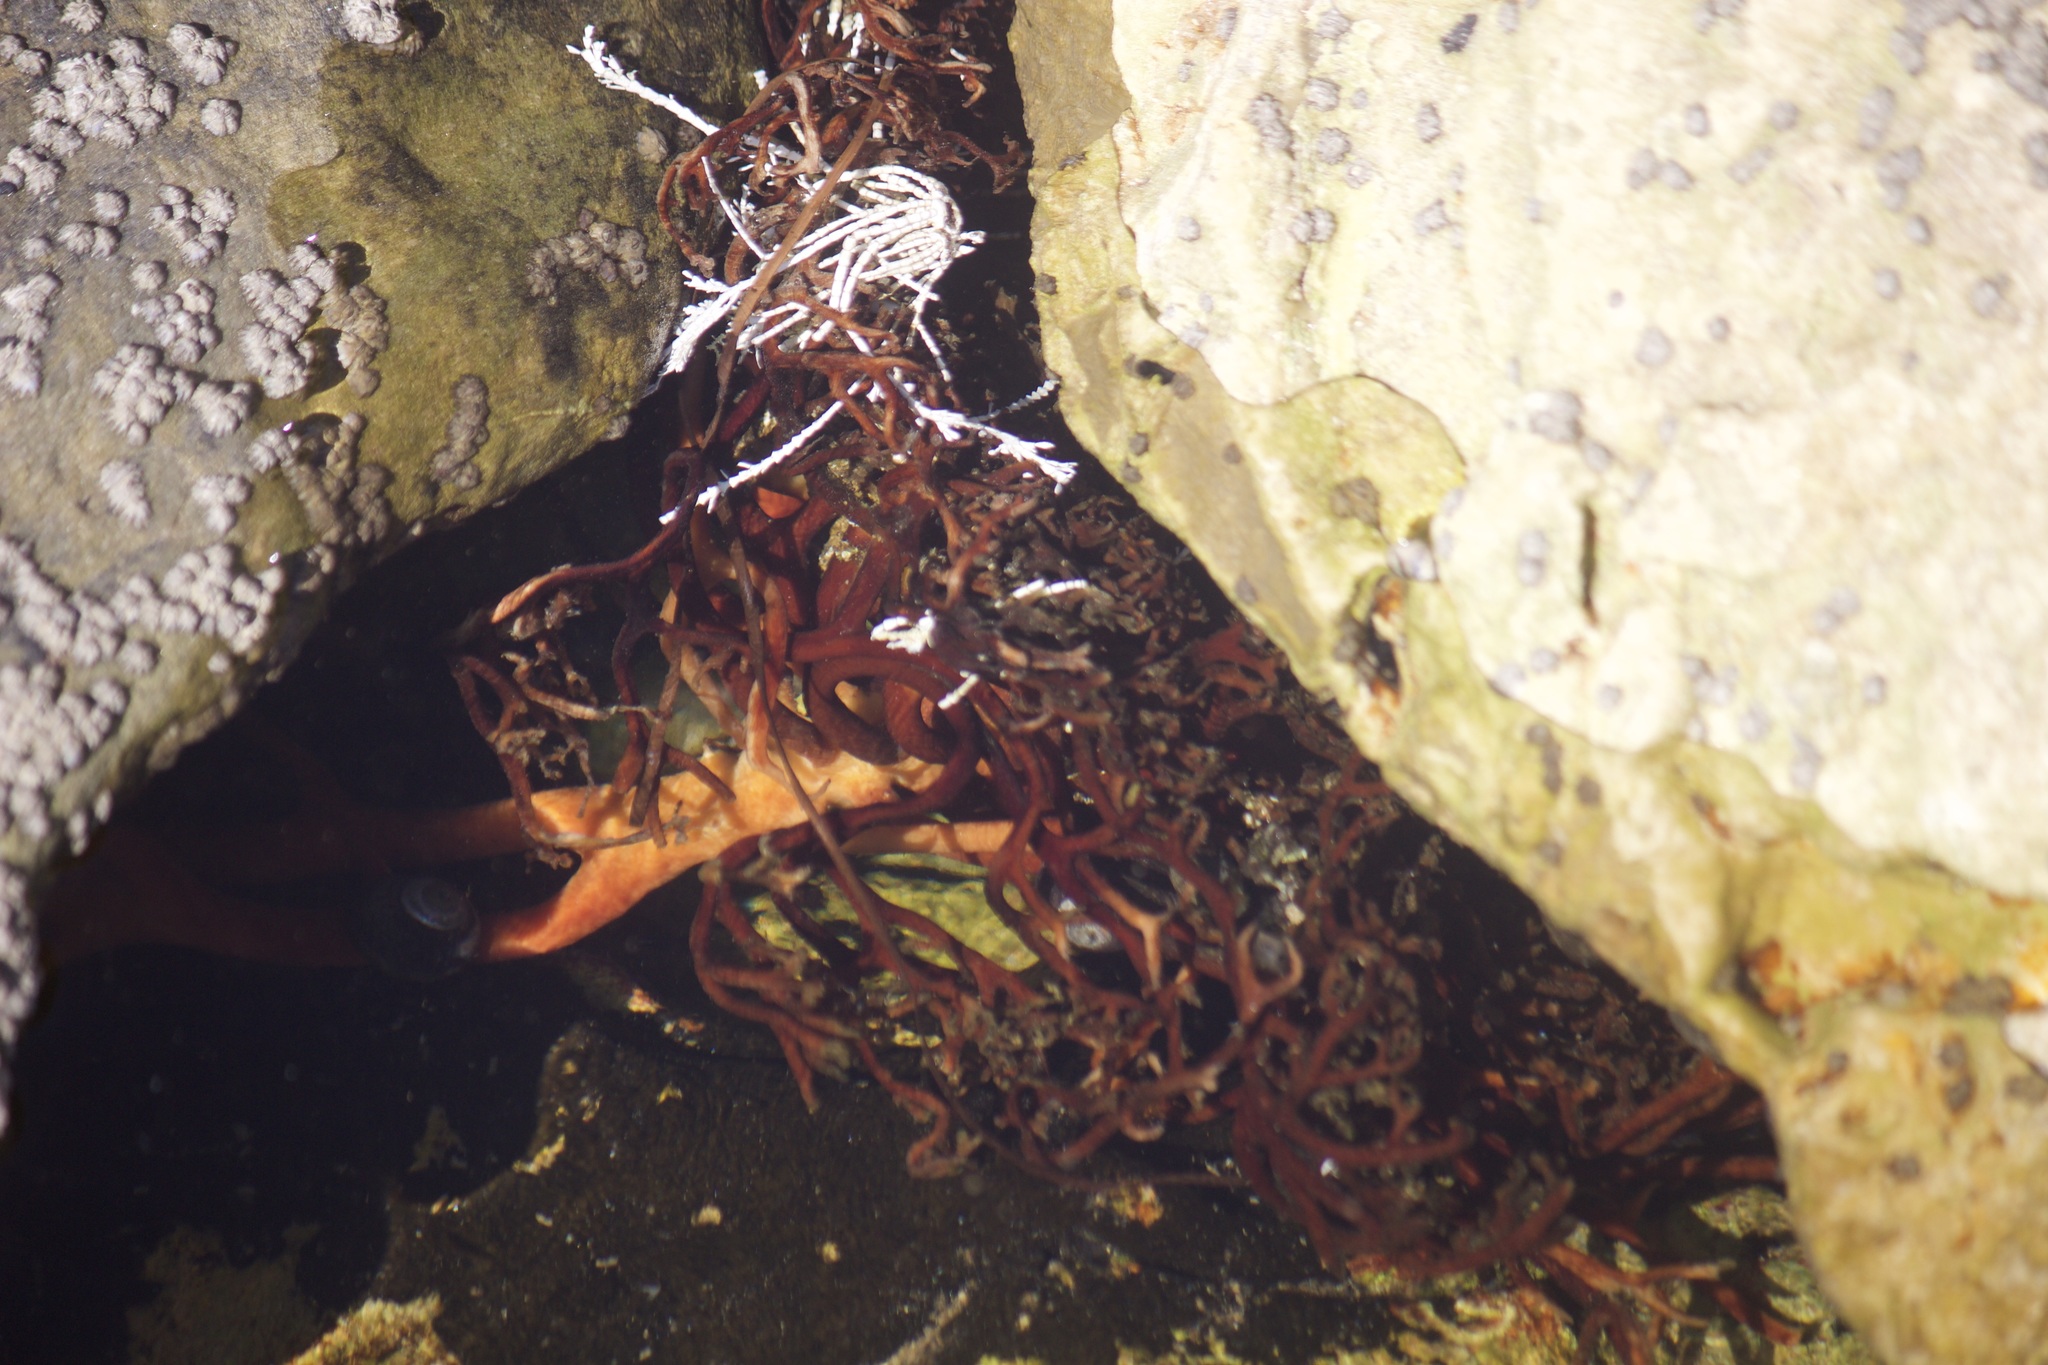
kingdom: Chromista
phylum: Ochrophyta
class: Phaeophyceae
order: Laminariales
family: Laminariaceae
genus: Macrocystis
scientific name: Macrocystis pyrifera
